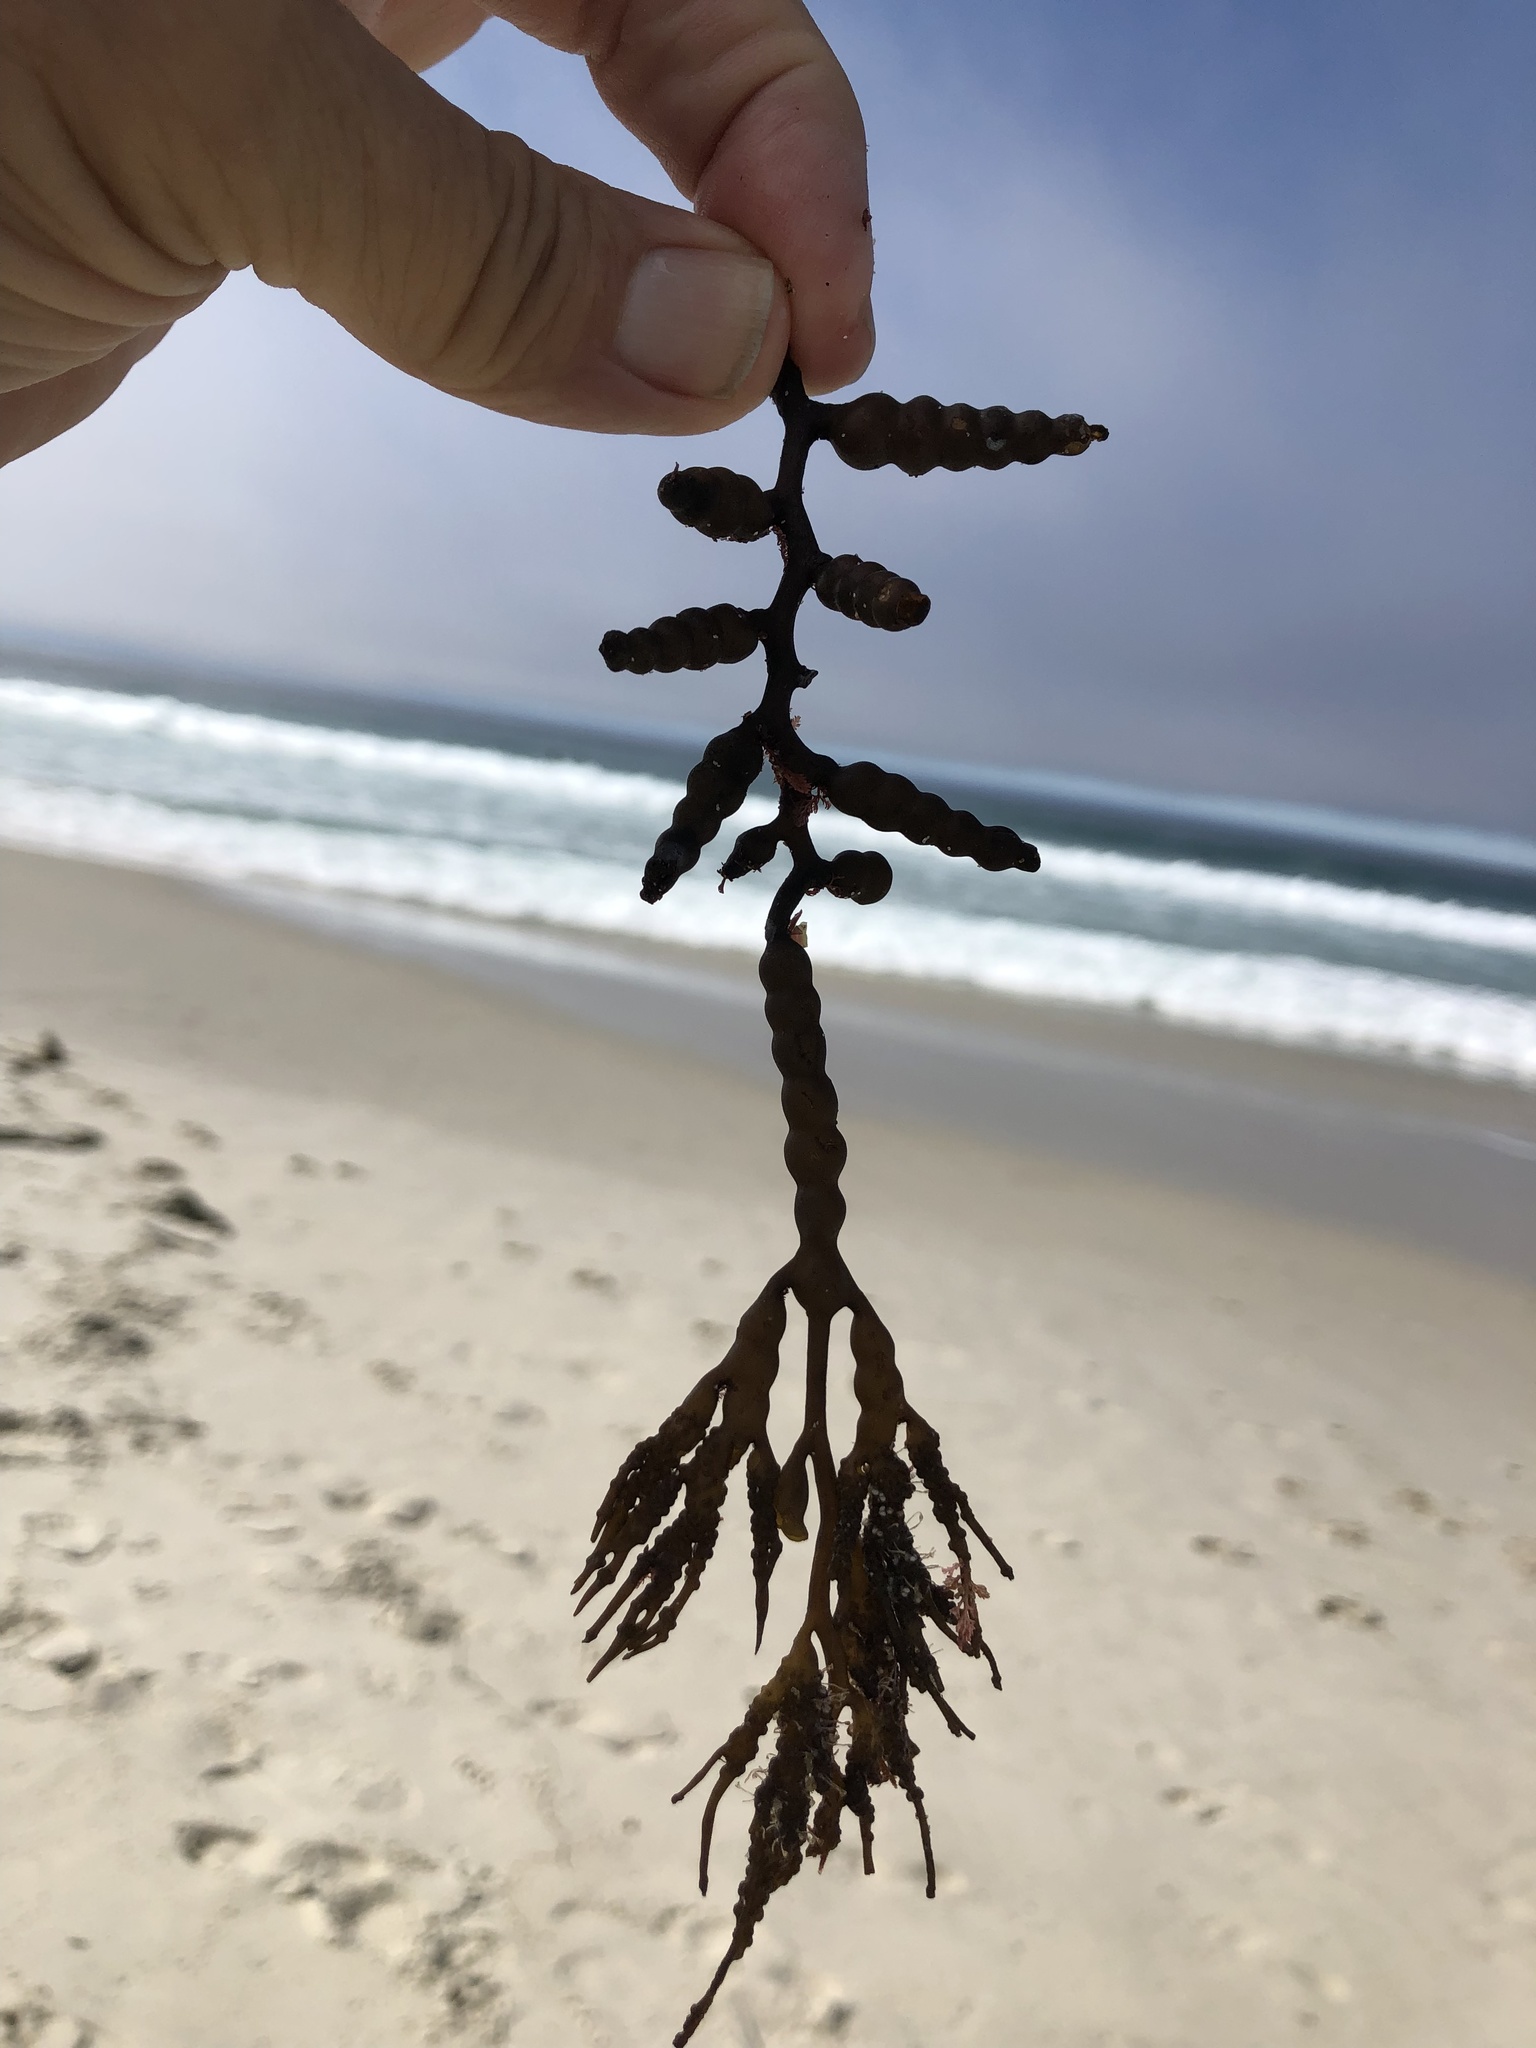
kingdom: Chromista
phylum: Ochrophyta
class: Phaeophyceae
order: Fucales
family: Sargassaceae
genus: Stephanocystis
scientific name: Stephanocystis
